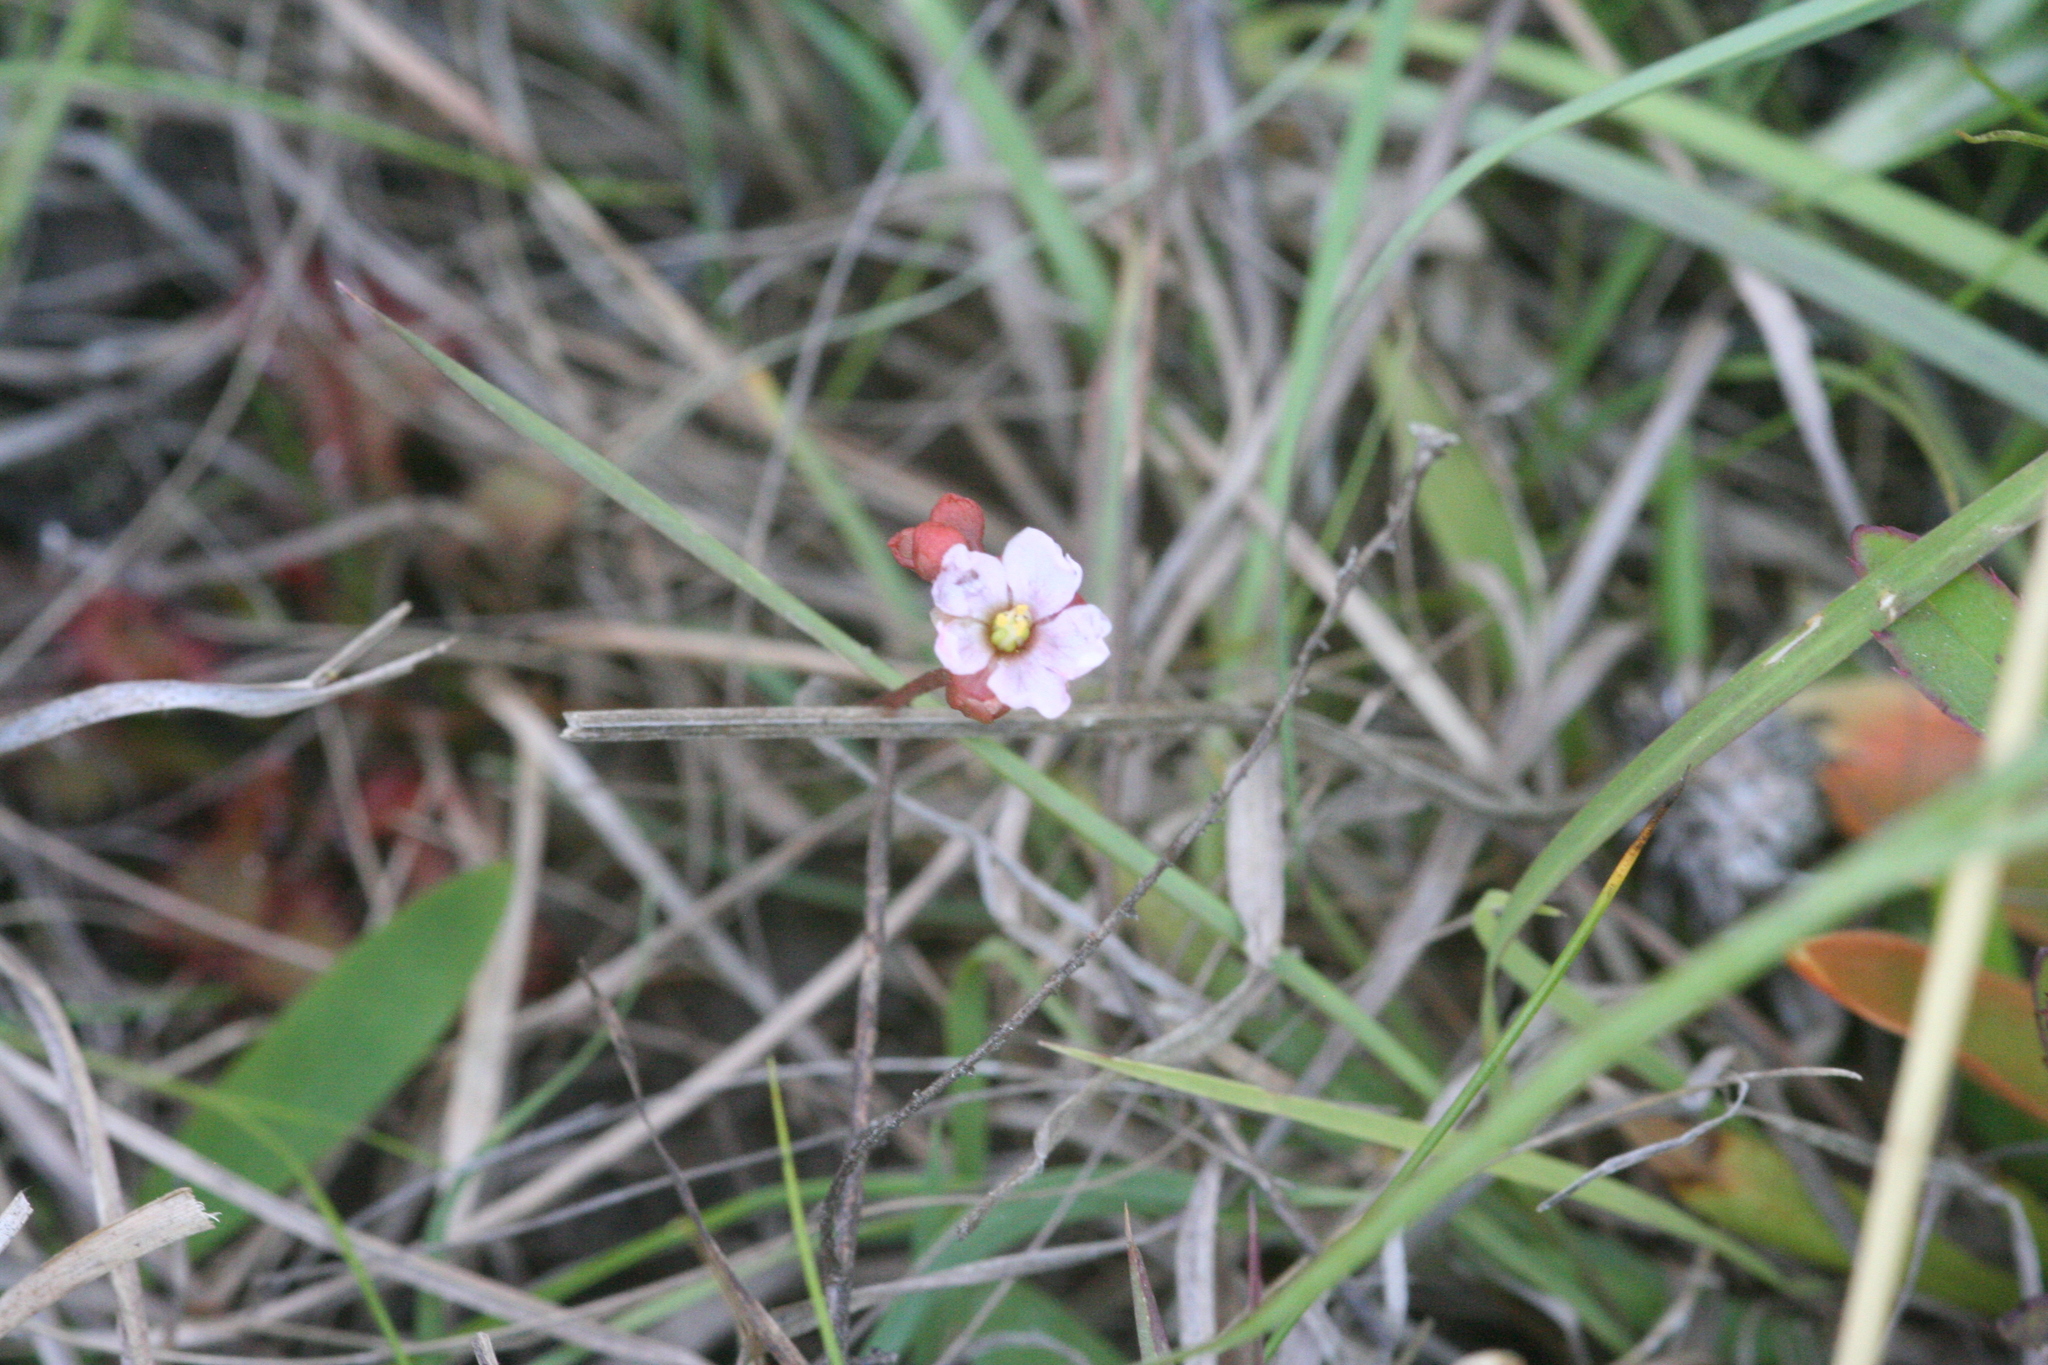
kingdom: Plantae
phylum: Tracheophyta
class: Magnoliopsida
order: Caryophyllales
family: Droseraceae
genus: Drosera
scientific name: Drosera capillaris
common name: Pink sundew
